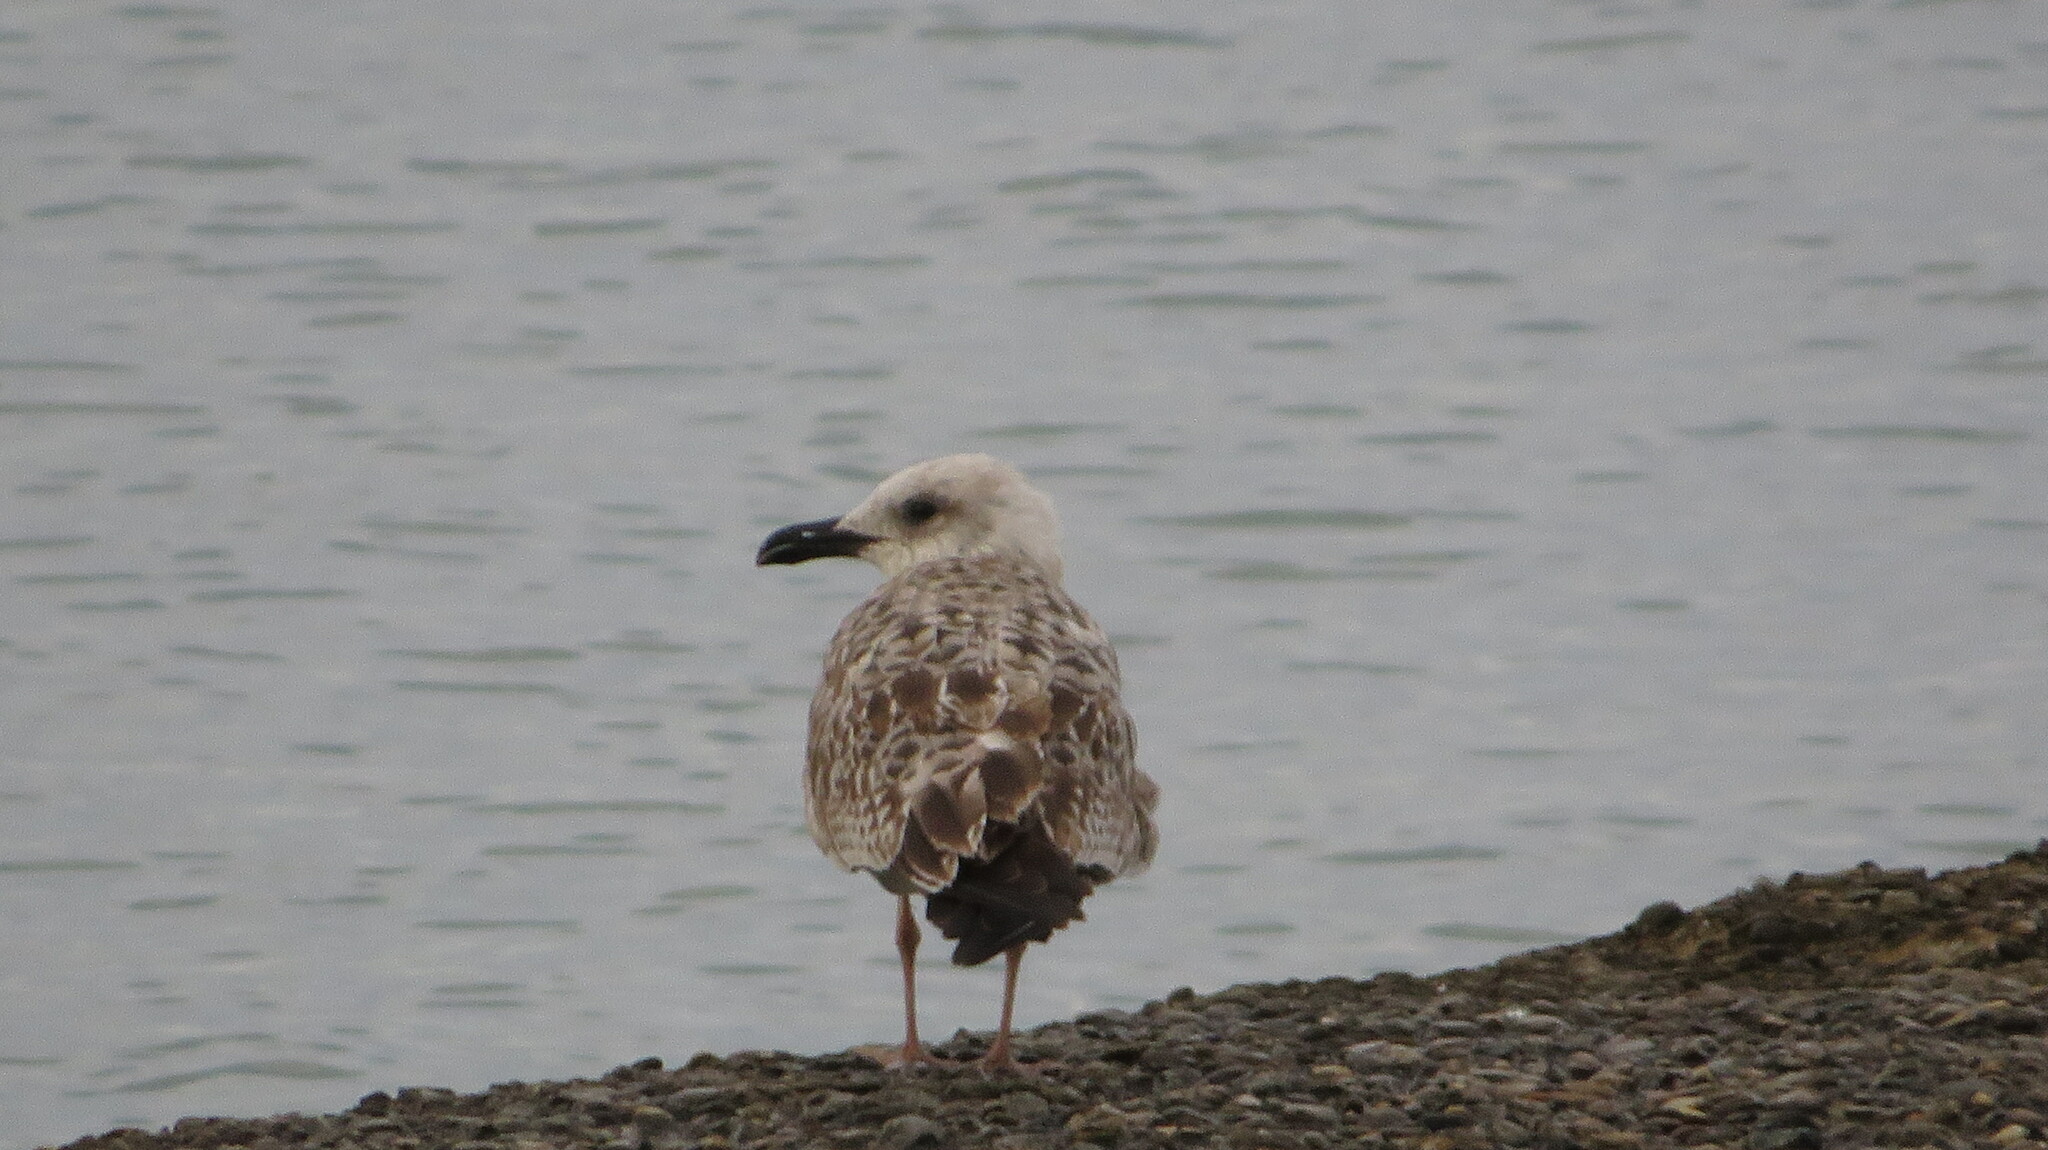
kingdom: Animalia
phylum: Chordata
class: Aves
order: Charadriiformes
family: Laridae
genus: Larus
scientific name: Larus michahellis
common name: Yellow-legged gull
